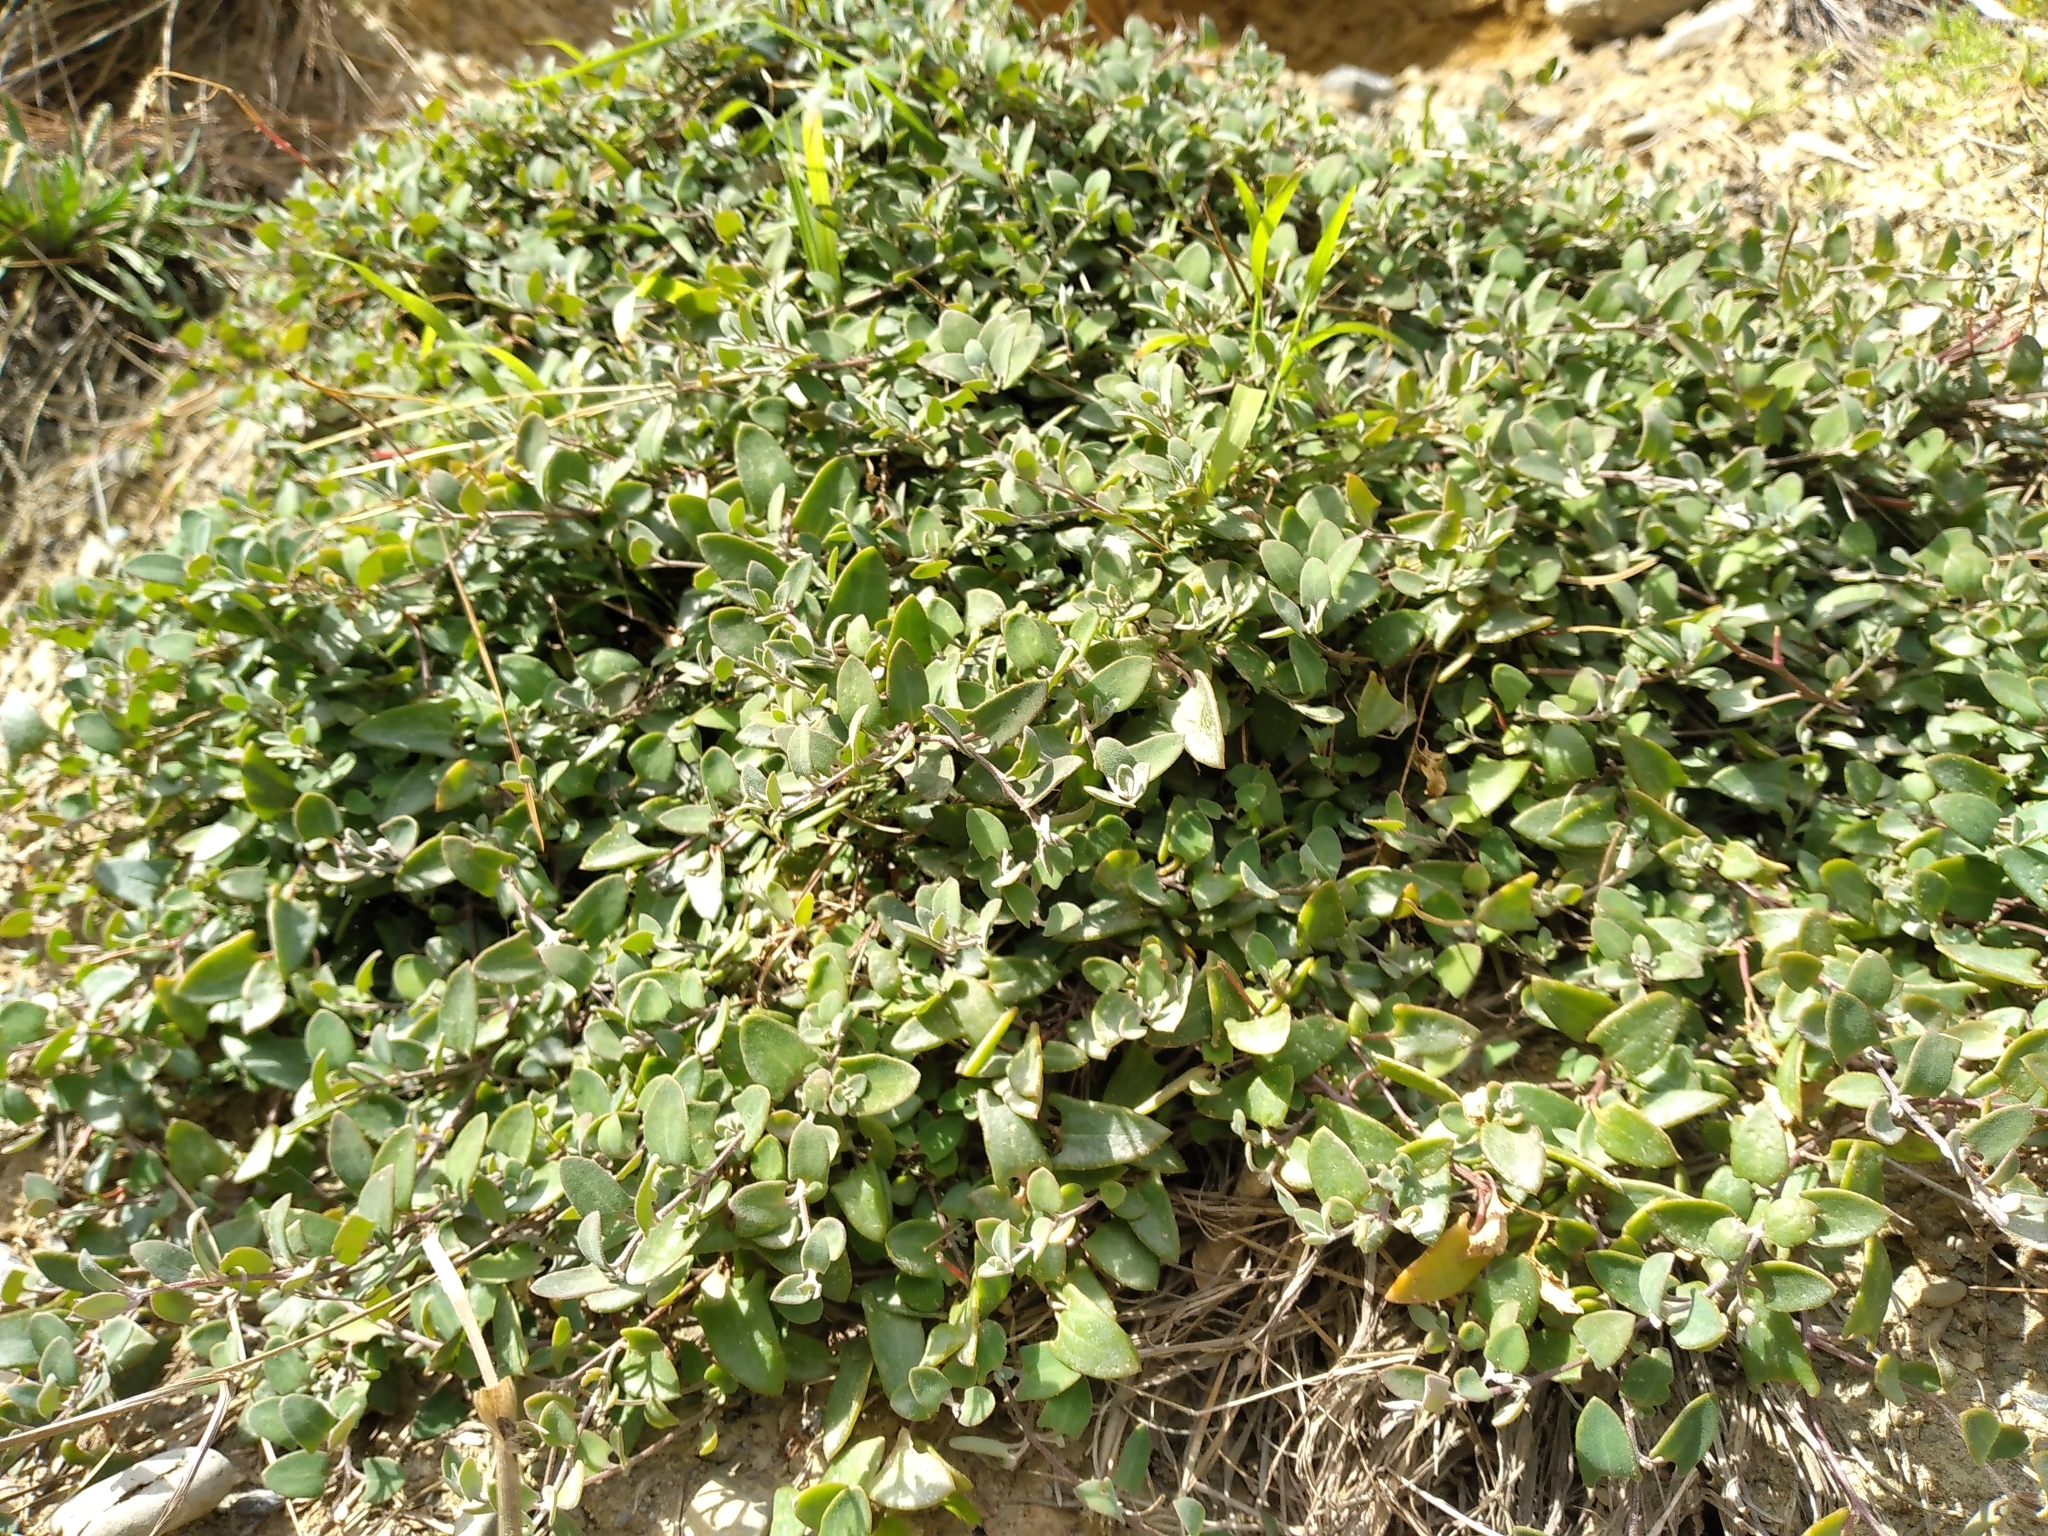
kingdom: Plantae
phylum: Tracheophyta
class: Magnoliopsida
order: Caryophyllales
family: Amaranthaceae
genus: Chenopodium
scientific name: Chenopodium triandrum
